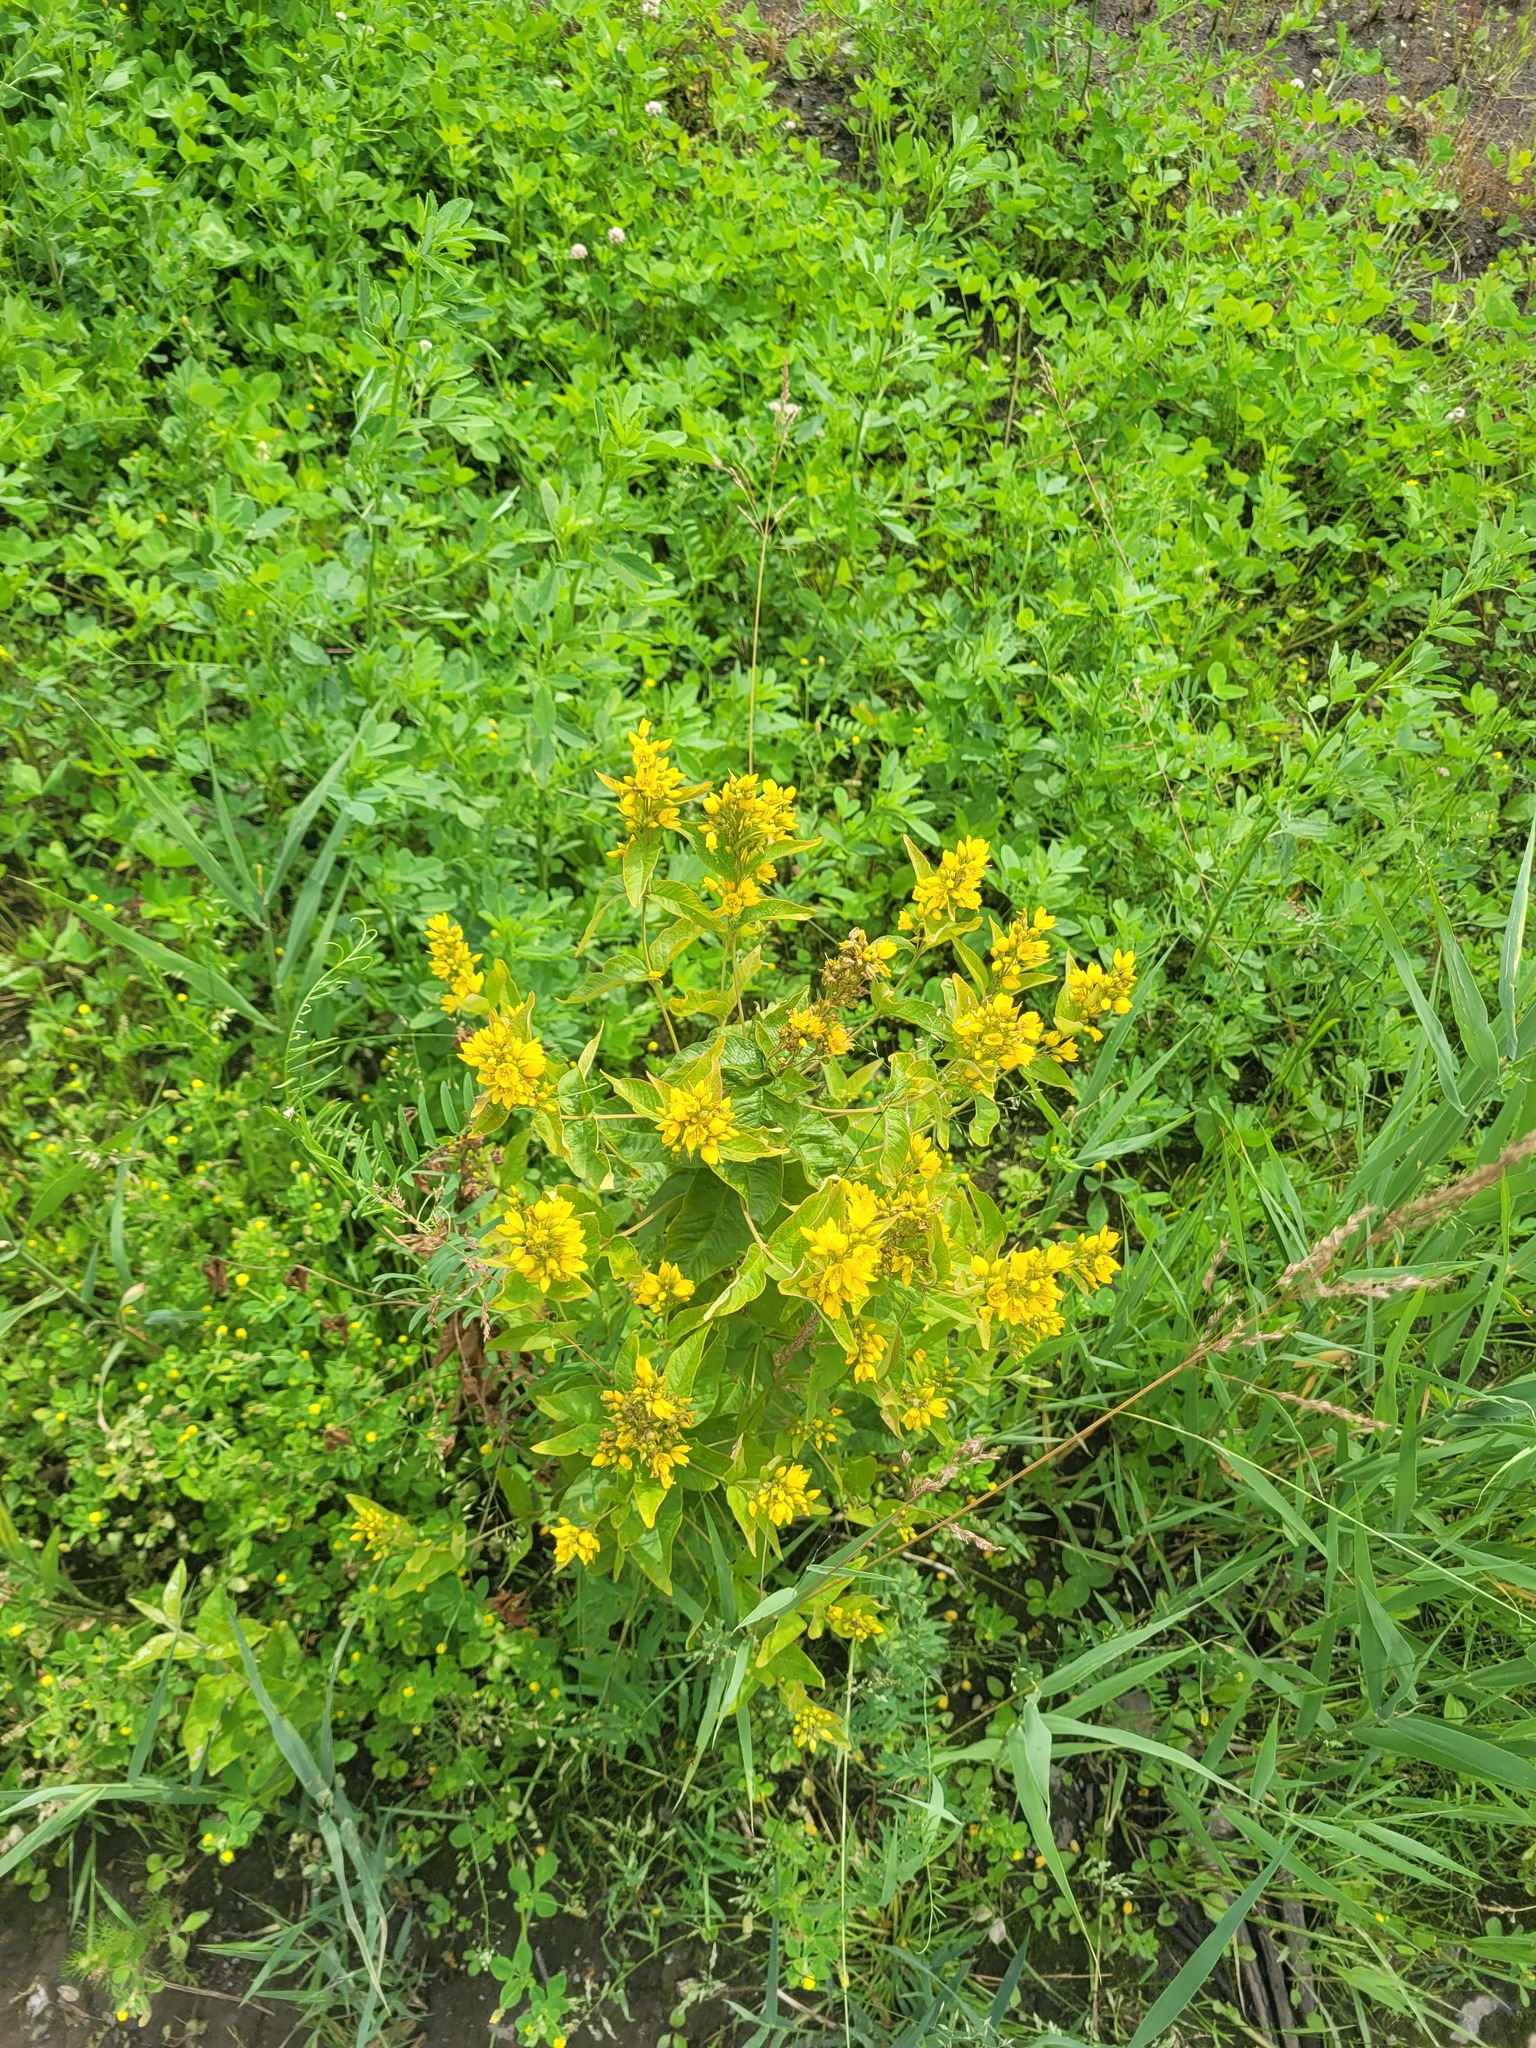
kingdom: Plantae
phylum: Tracheophyta
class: Magnoliopsida
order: Ericales
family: Primulaceae
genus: Lysimachia
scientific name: Lysimachia vulgaris
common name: Yellow loosestrife
